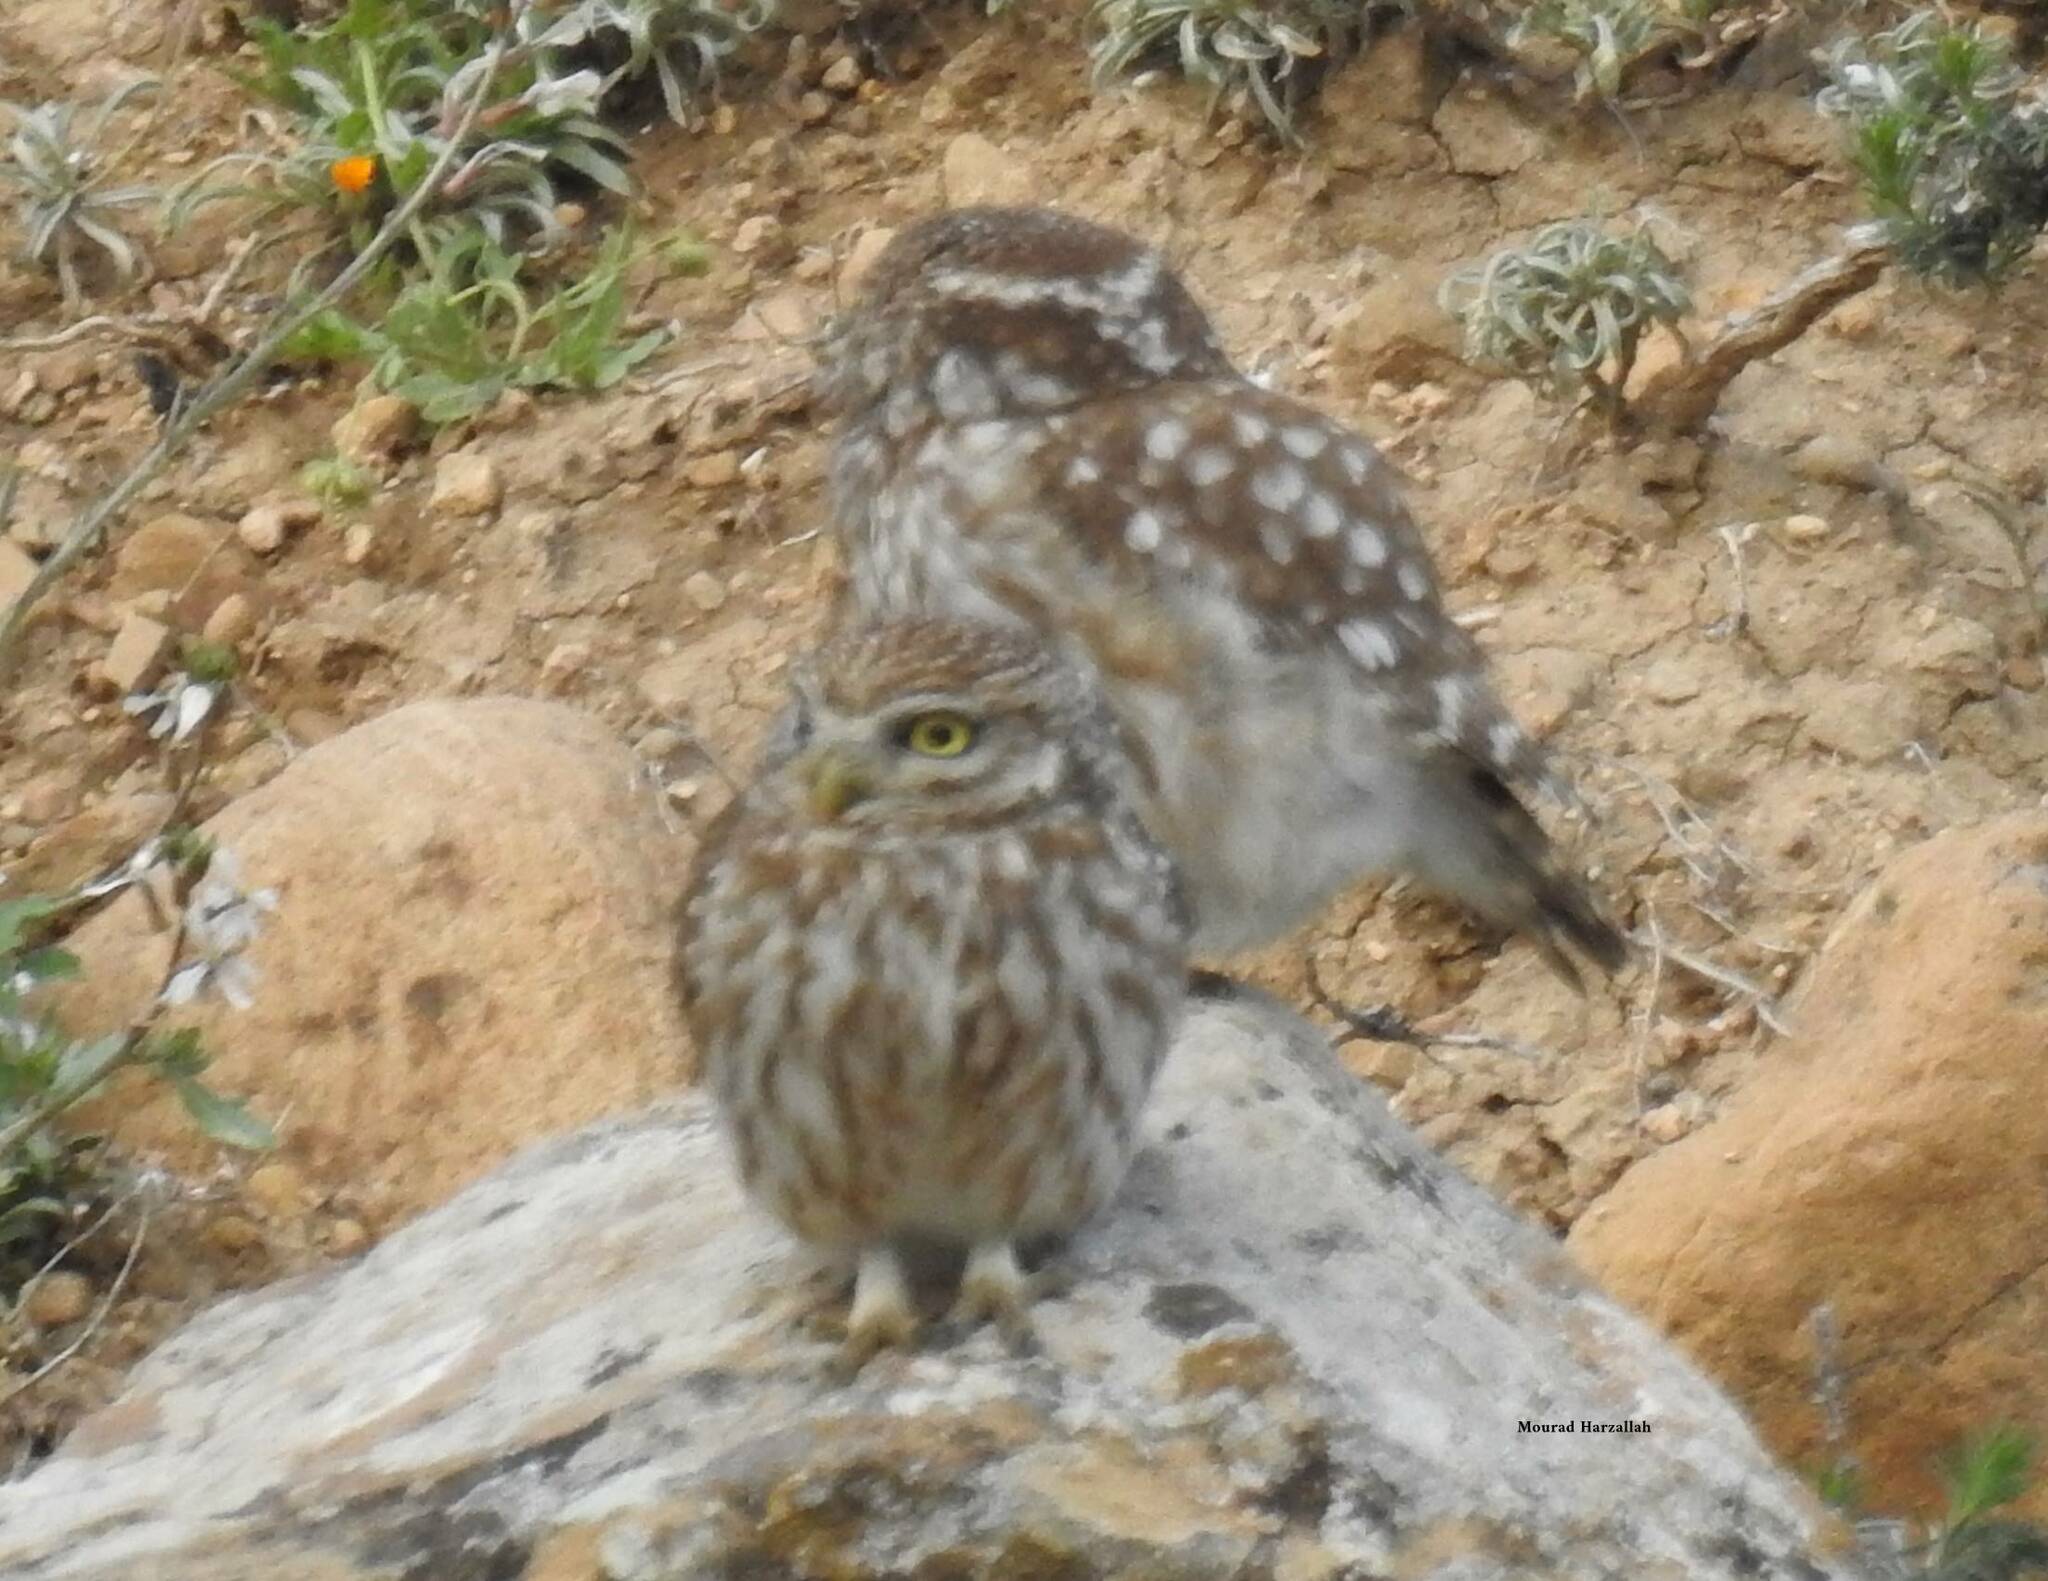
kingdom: Animalia
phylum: Chordata
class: Aves
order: Strigiformes
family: Strigidae
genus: Athene
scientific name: Athene noctua
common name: Little owl
